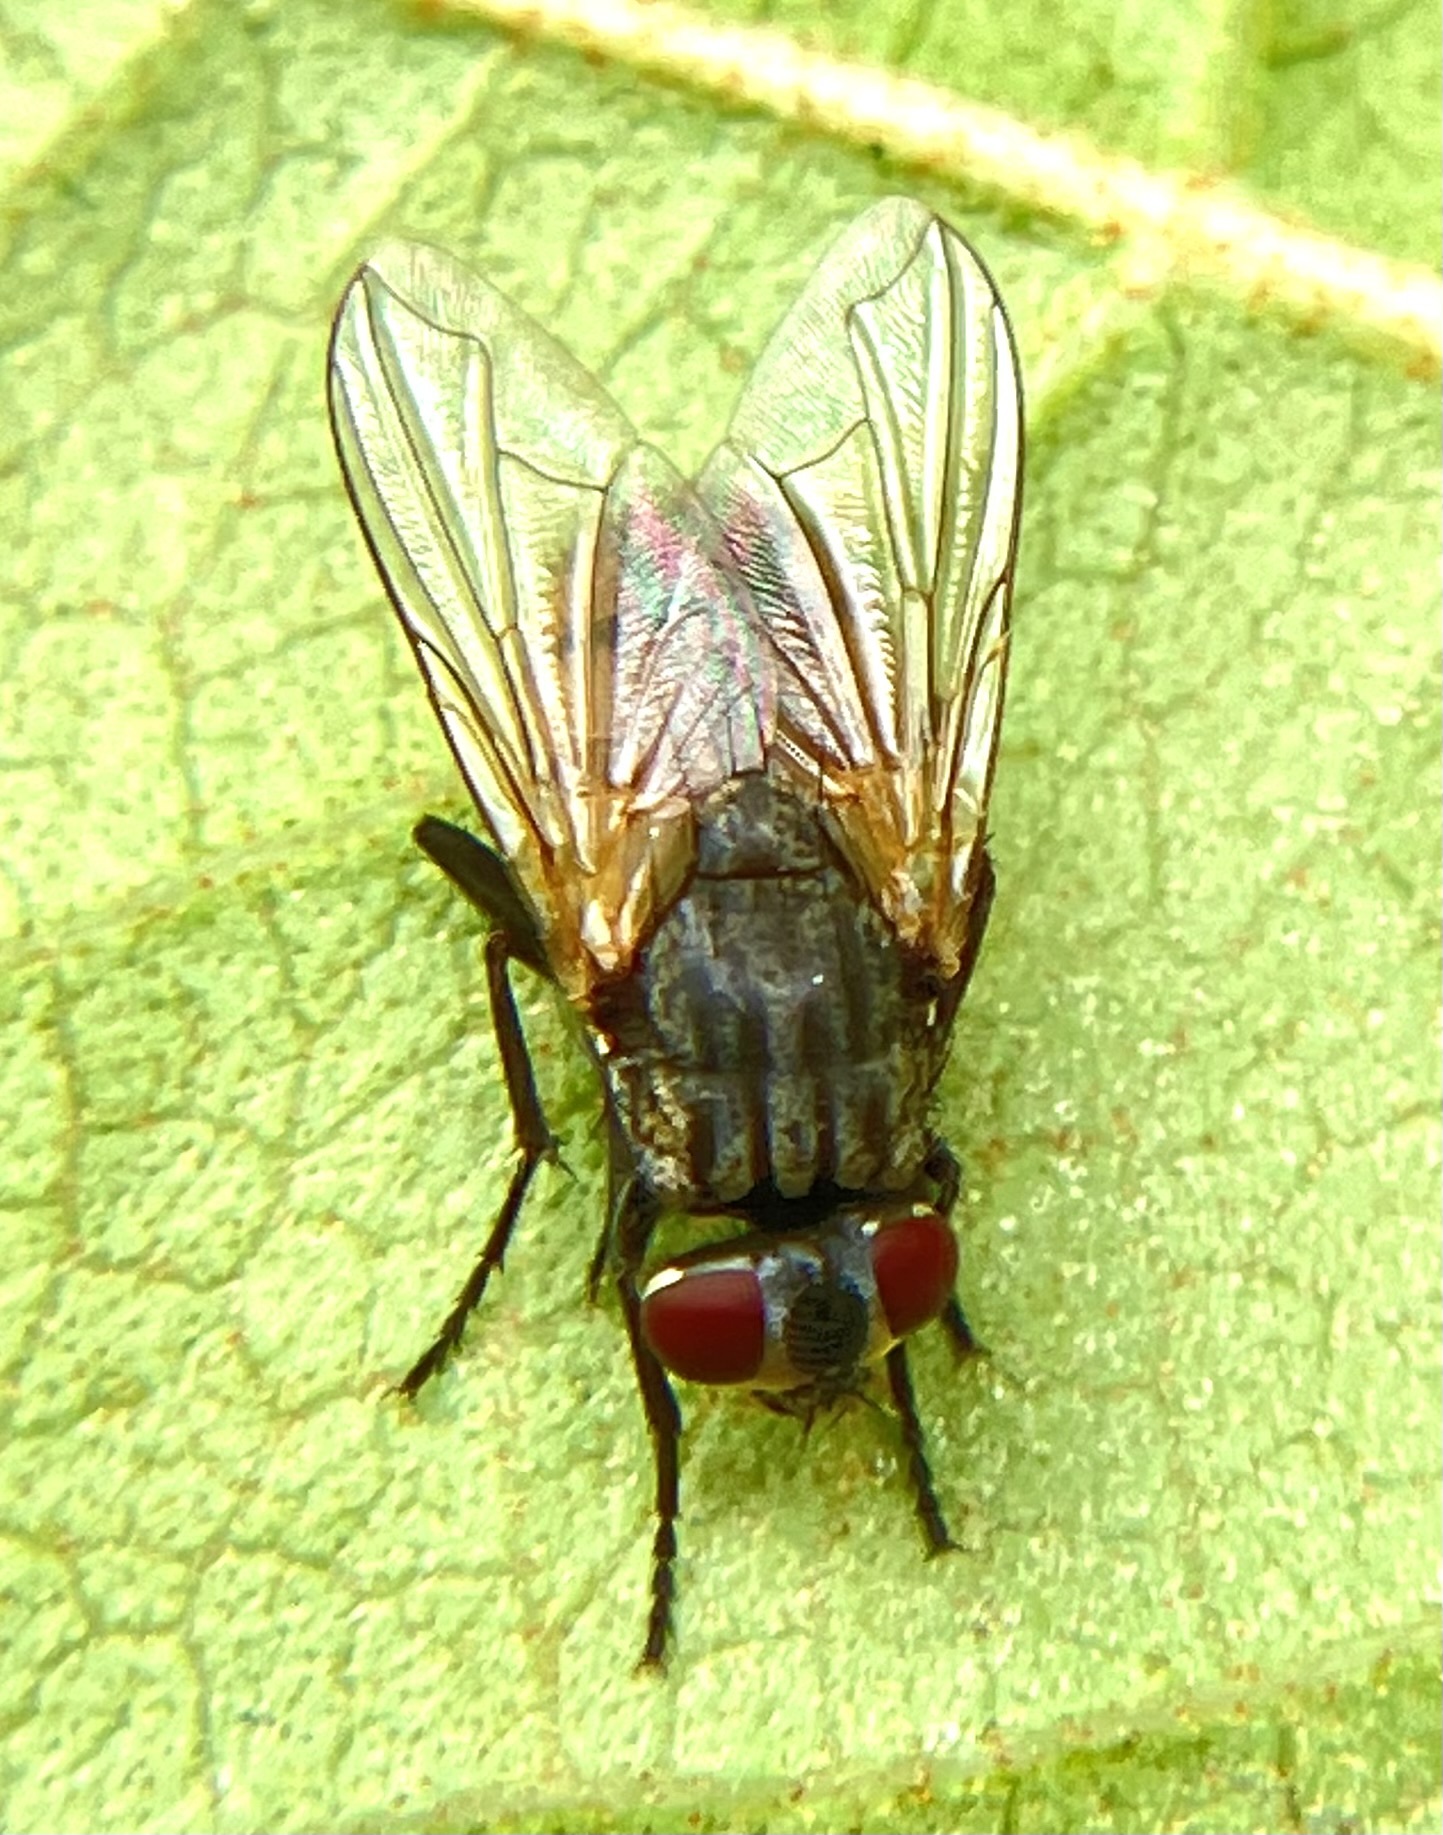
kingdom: Animalia
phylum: Arthropoda
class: Insecta
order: Diptera
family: Muscidae
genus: Musca
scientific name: Musca domestica
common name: House fly
